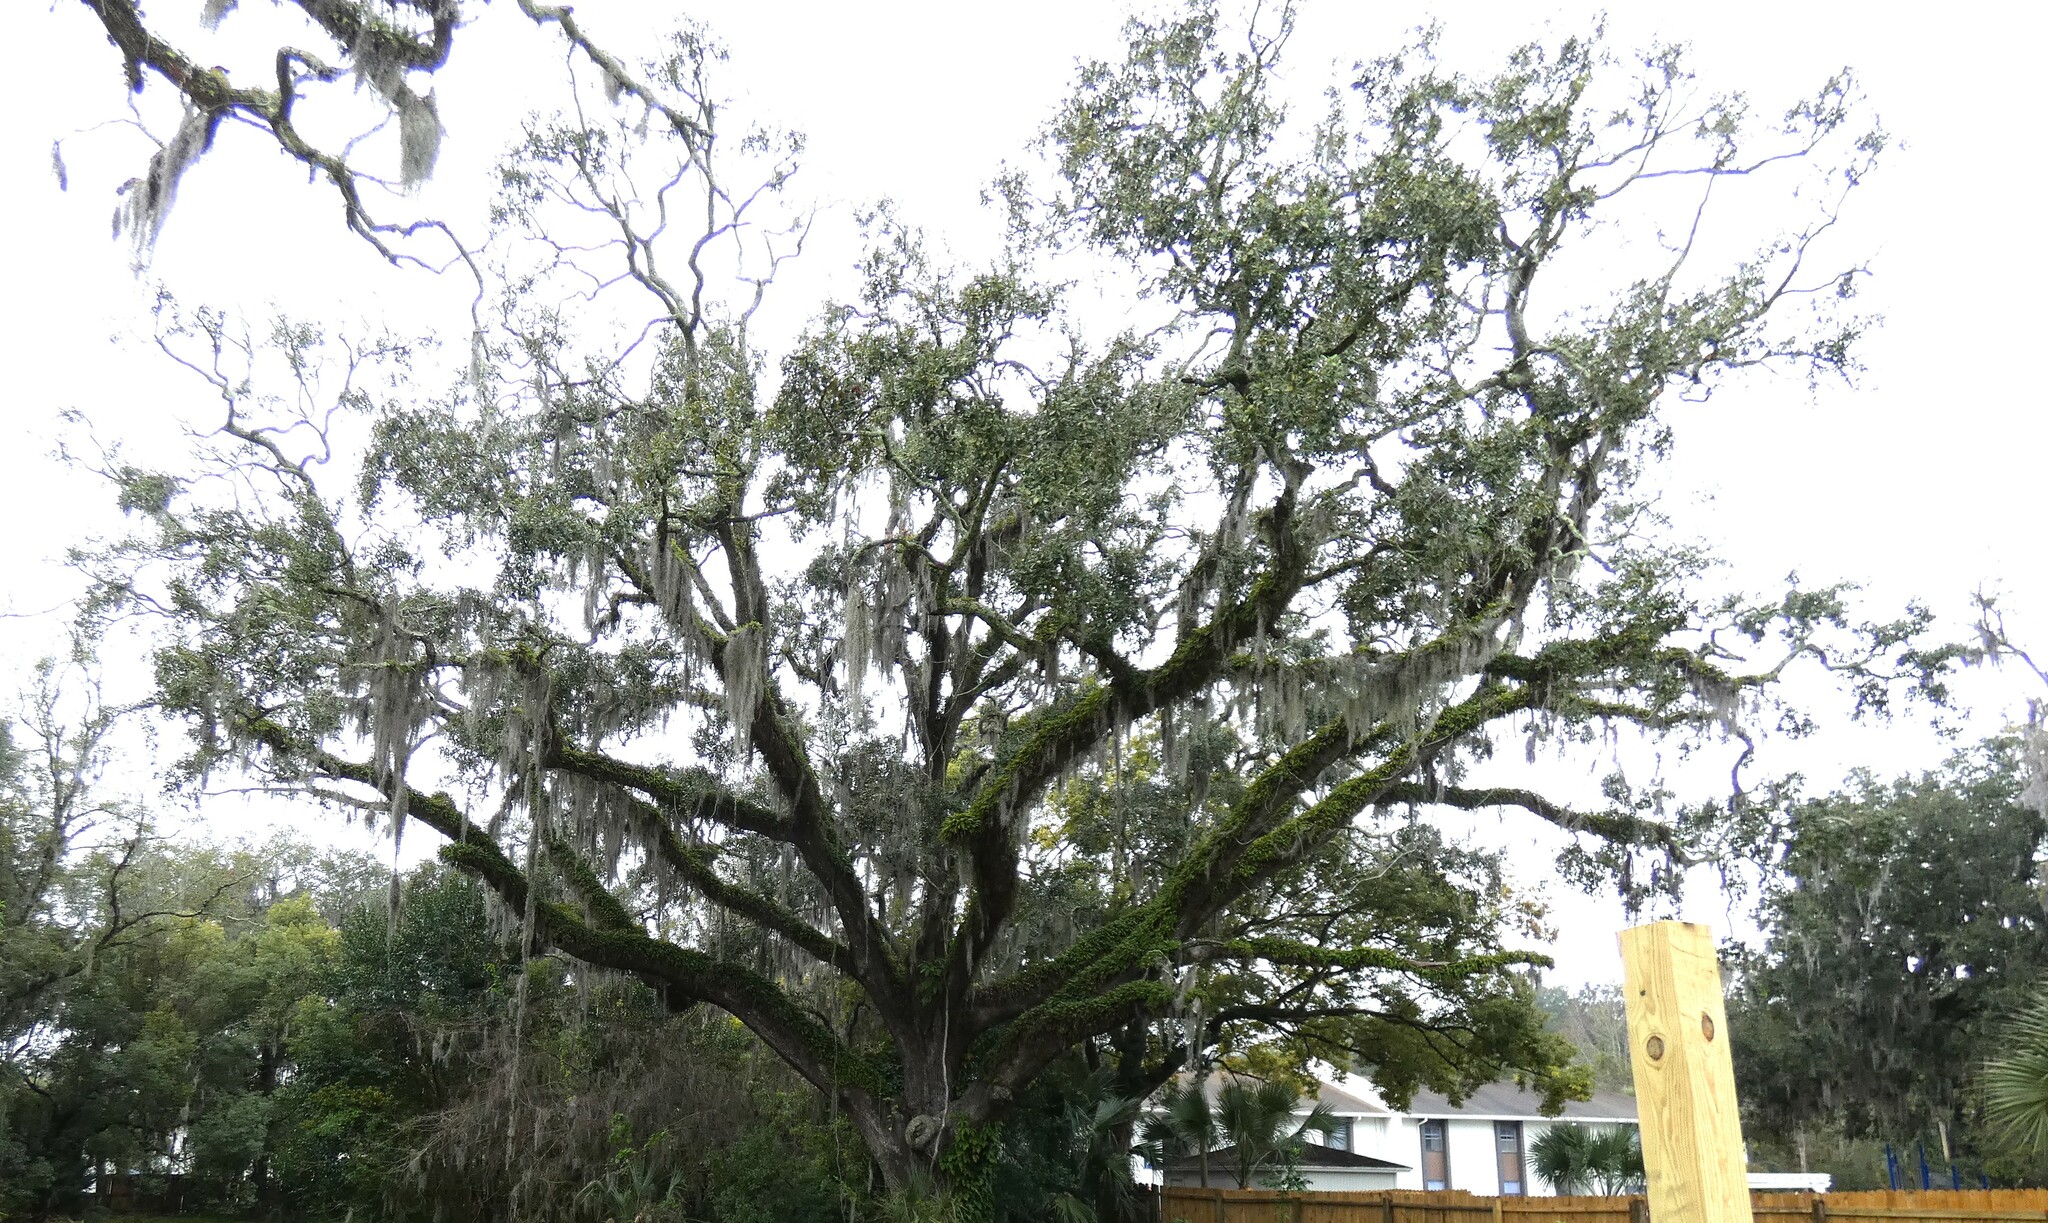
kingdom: Plantae
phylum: Tracheophyta
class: Magnoliopsida
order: Fagales
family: Fagaceae
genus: Quercus
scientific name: Quercus virginiana
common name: Southern live oak
